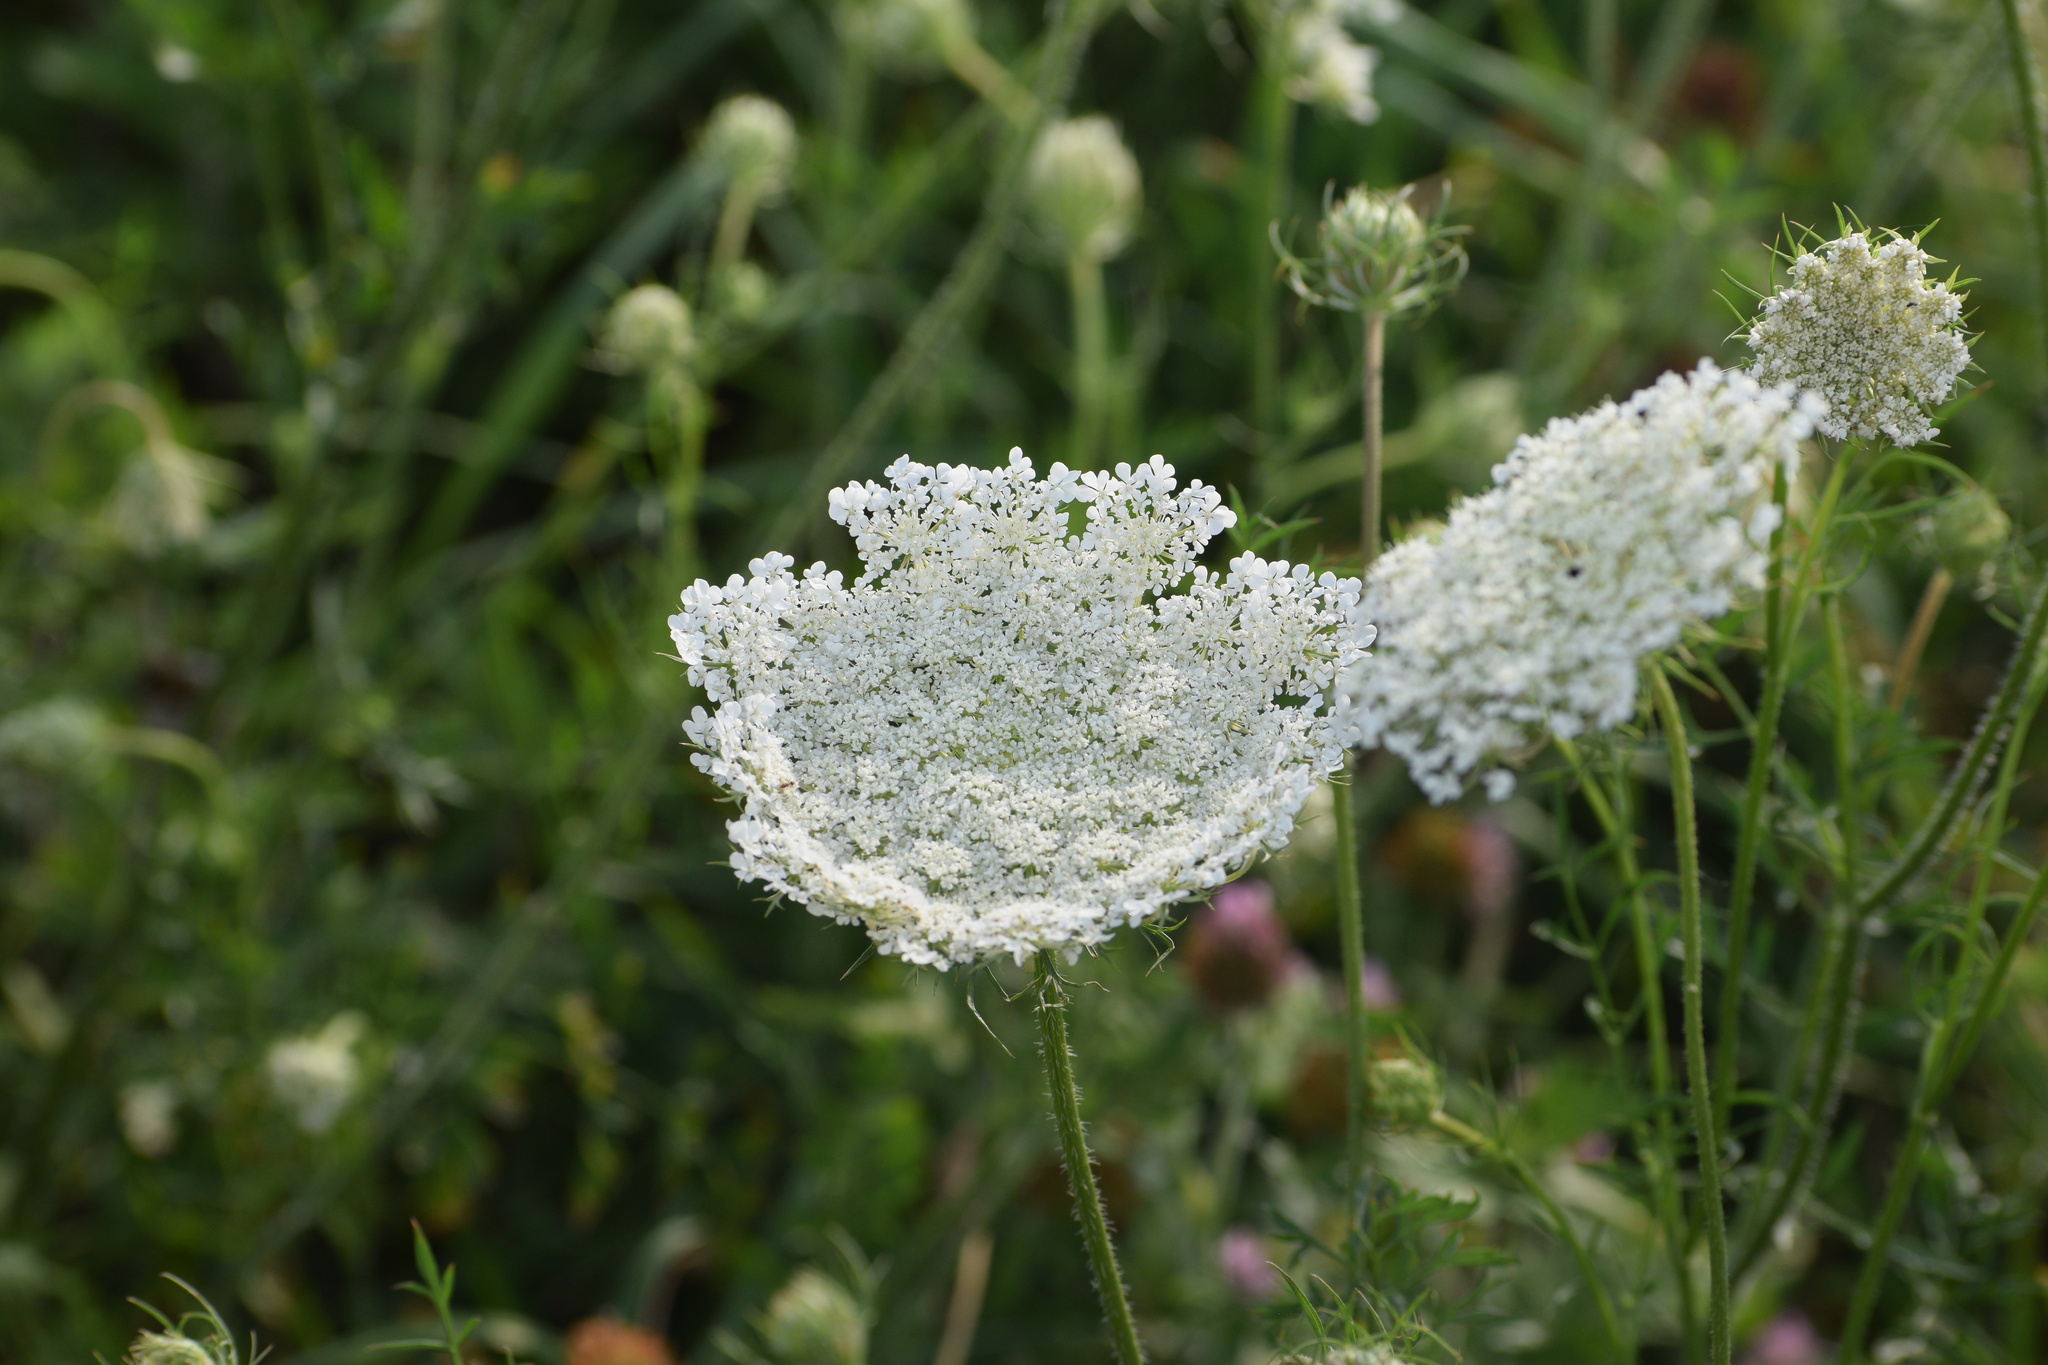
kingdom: Plantae
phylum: Tracheophyta
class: Magnoliopsida
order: Apiales
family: Apiaceae
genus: Daucus
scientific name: Daucus carota
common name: Wild carrot
